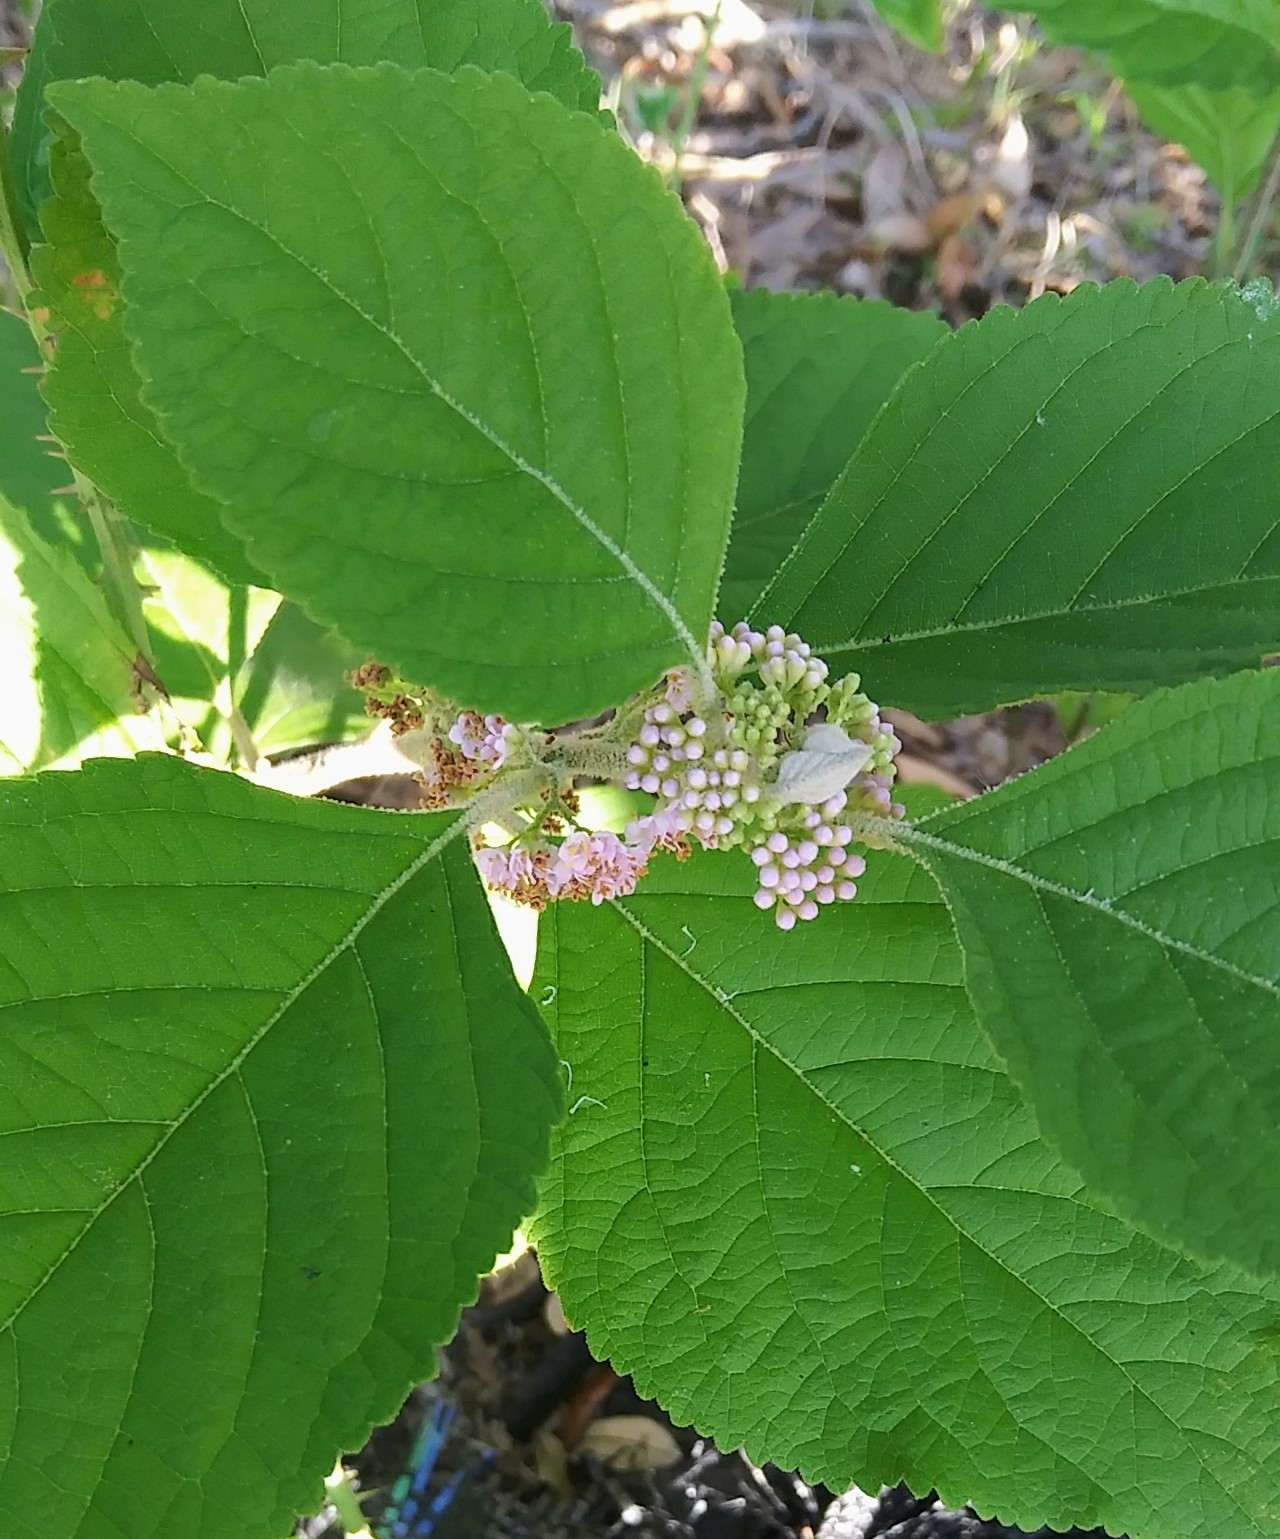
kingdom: Plantae
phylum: Tracheophyta
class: Magnoliopsida
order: Lamiales
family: Lamiaceae
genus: Callicarpa
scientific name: Callicarpa americana
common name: American beautyberry
